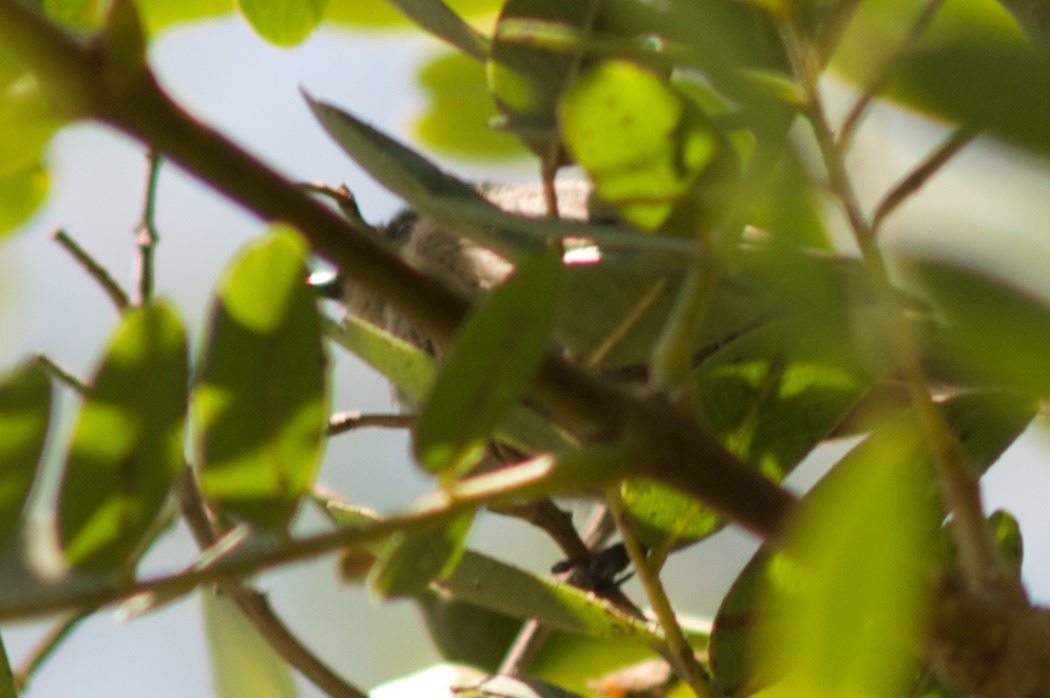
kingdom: Animalia
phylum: Chordata
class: Aves
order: Passeriformes
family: Aegithalidae
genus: Psaltriparus
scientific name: Psaltriparus minimus
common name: American bushtit
